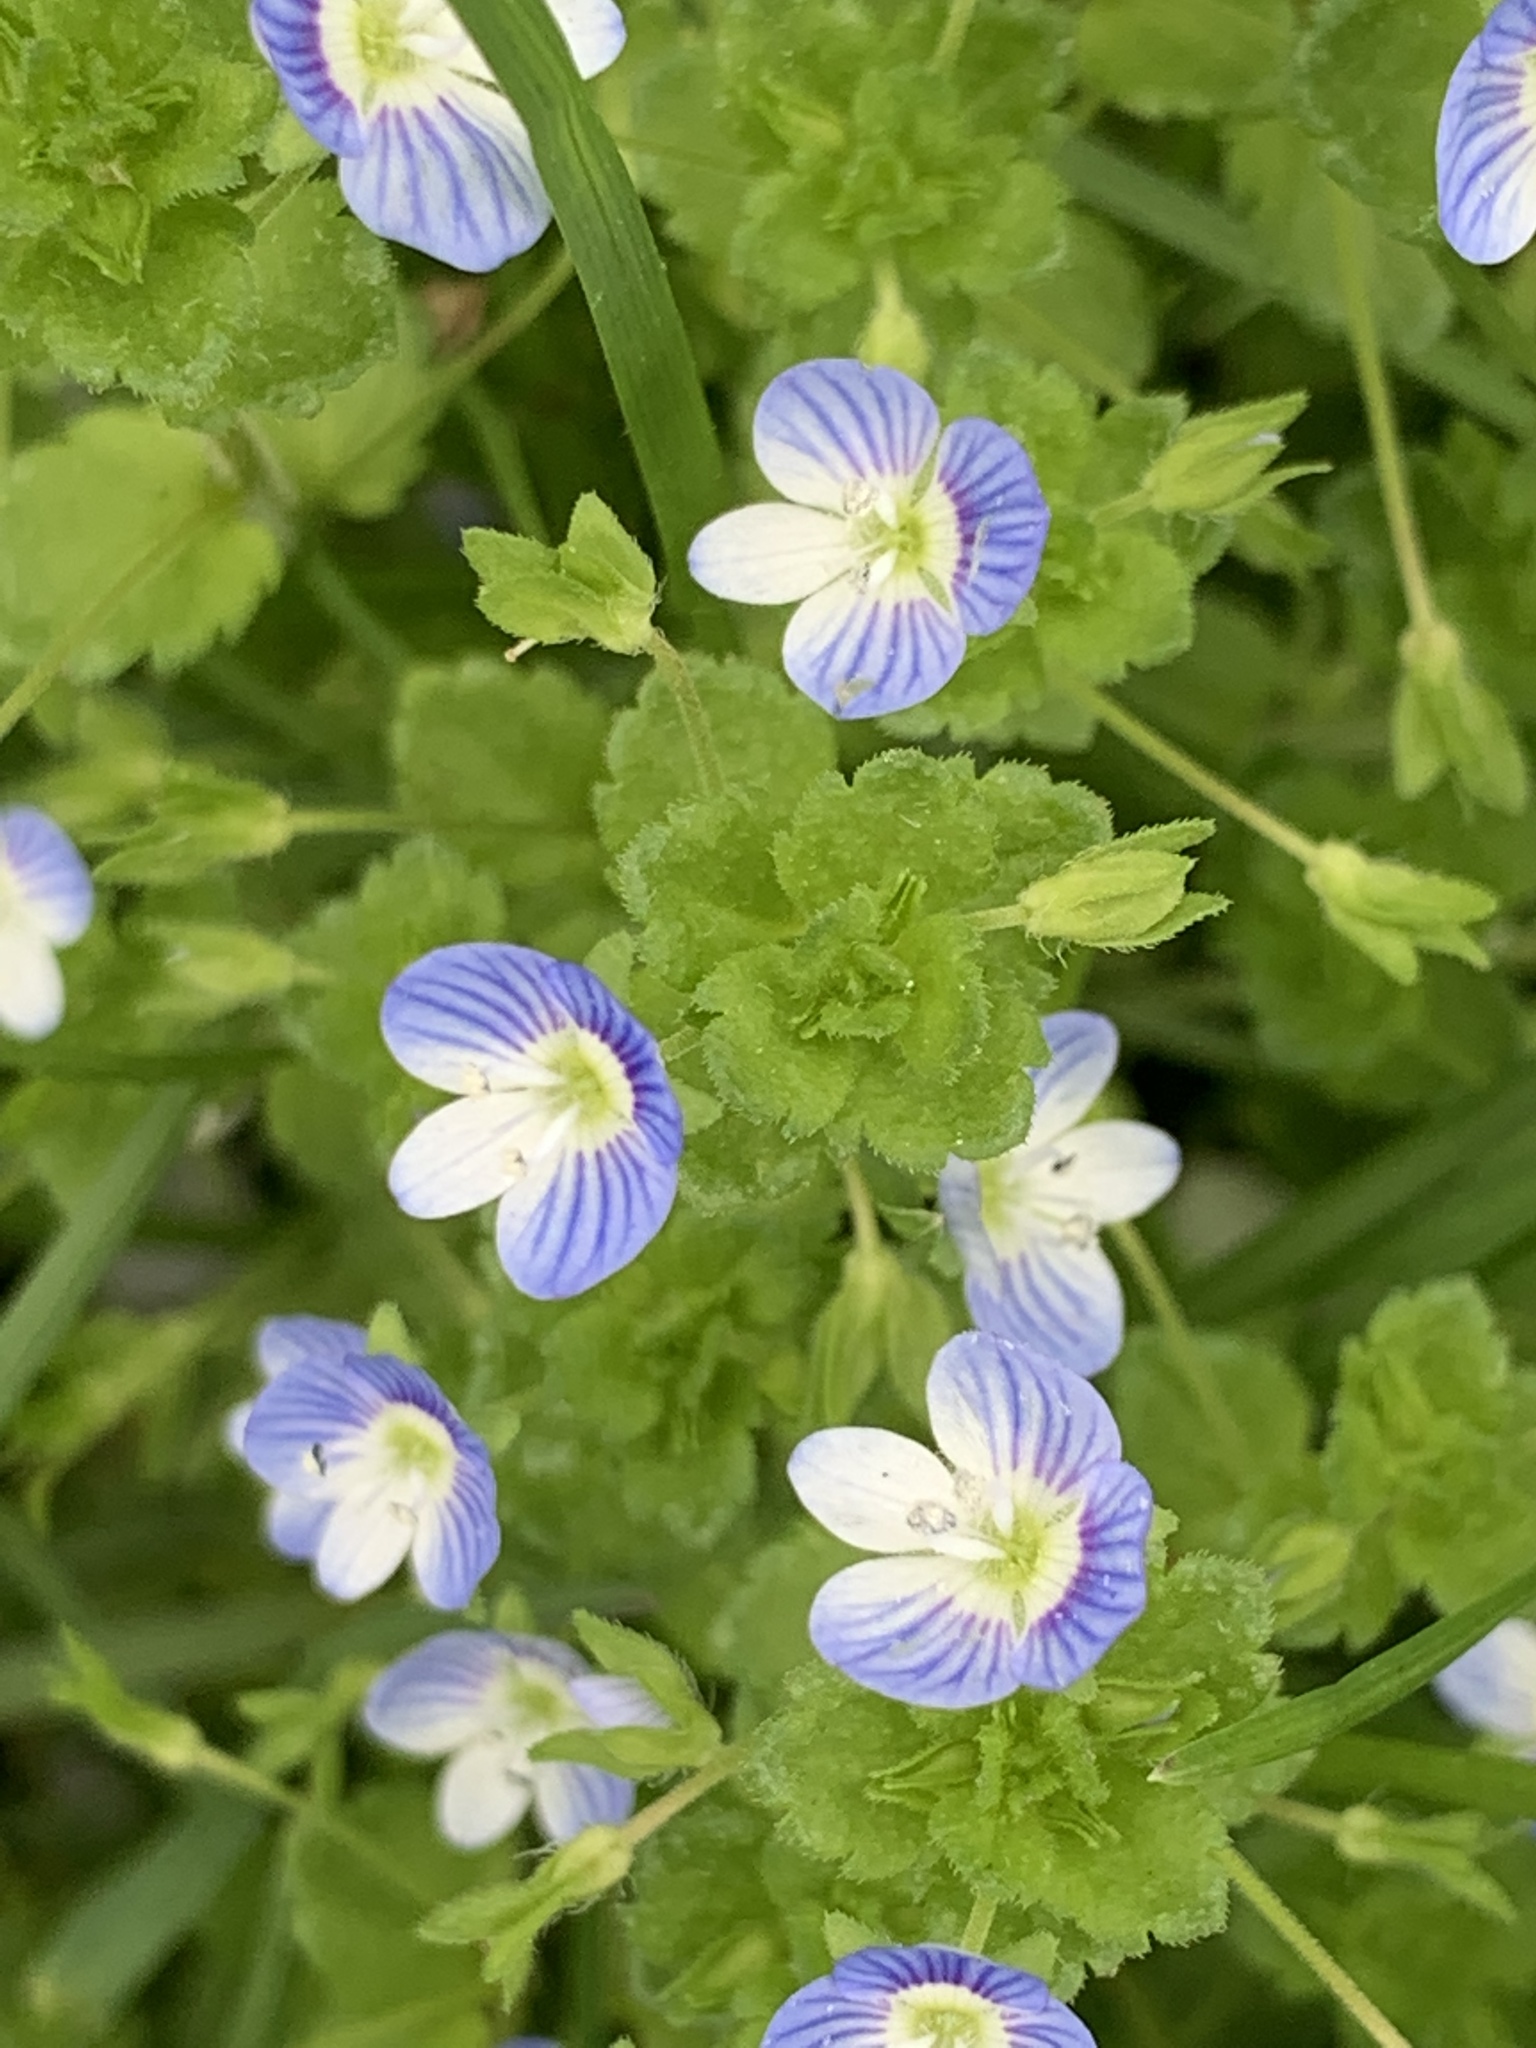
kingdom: Plantae
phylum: Tracheophyta
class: Magnoliopsida
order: Lamiales
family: Plantaginaceae
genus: Veronica
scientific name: Veronica persica
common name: Common field-speedwell
